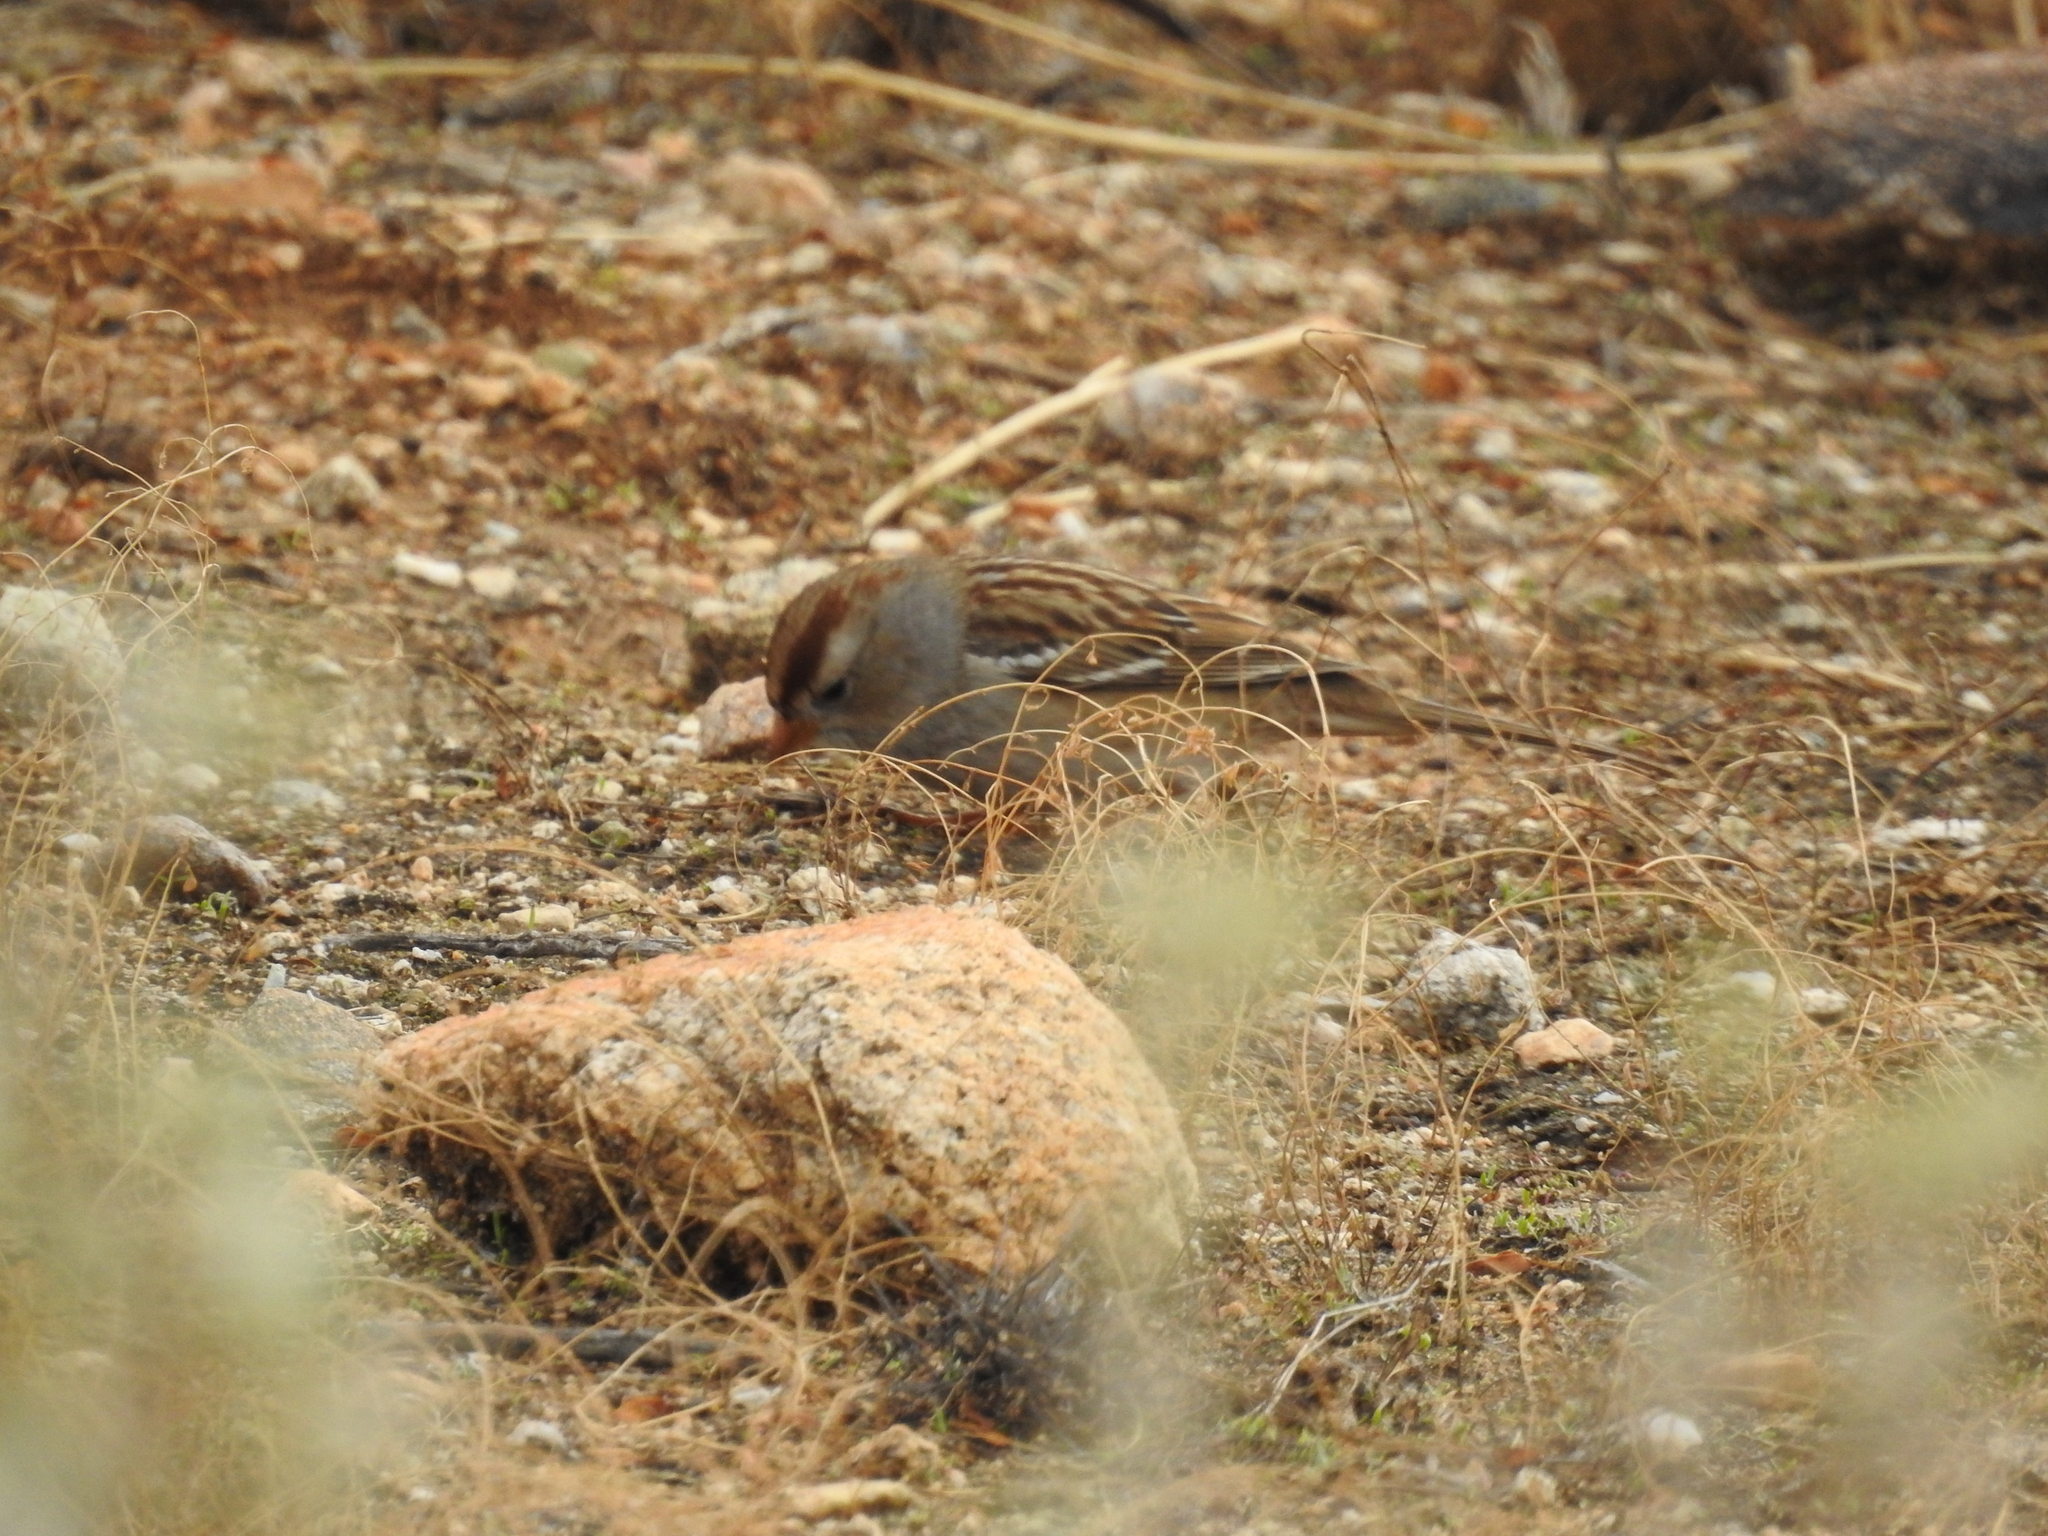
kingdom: Animalia
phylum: Chordata
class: Aves
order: Passeriformes
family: Passerellidae
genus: Zonotrichia
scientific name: Zonotrichia leucophrys
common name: White-crowned sparrow
